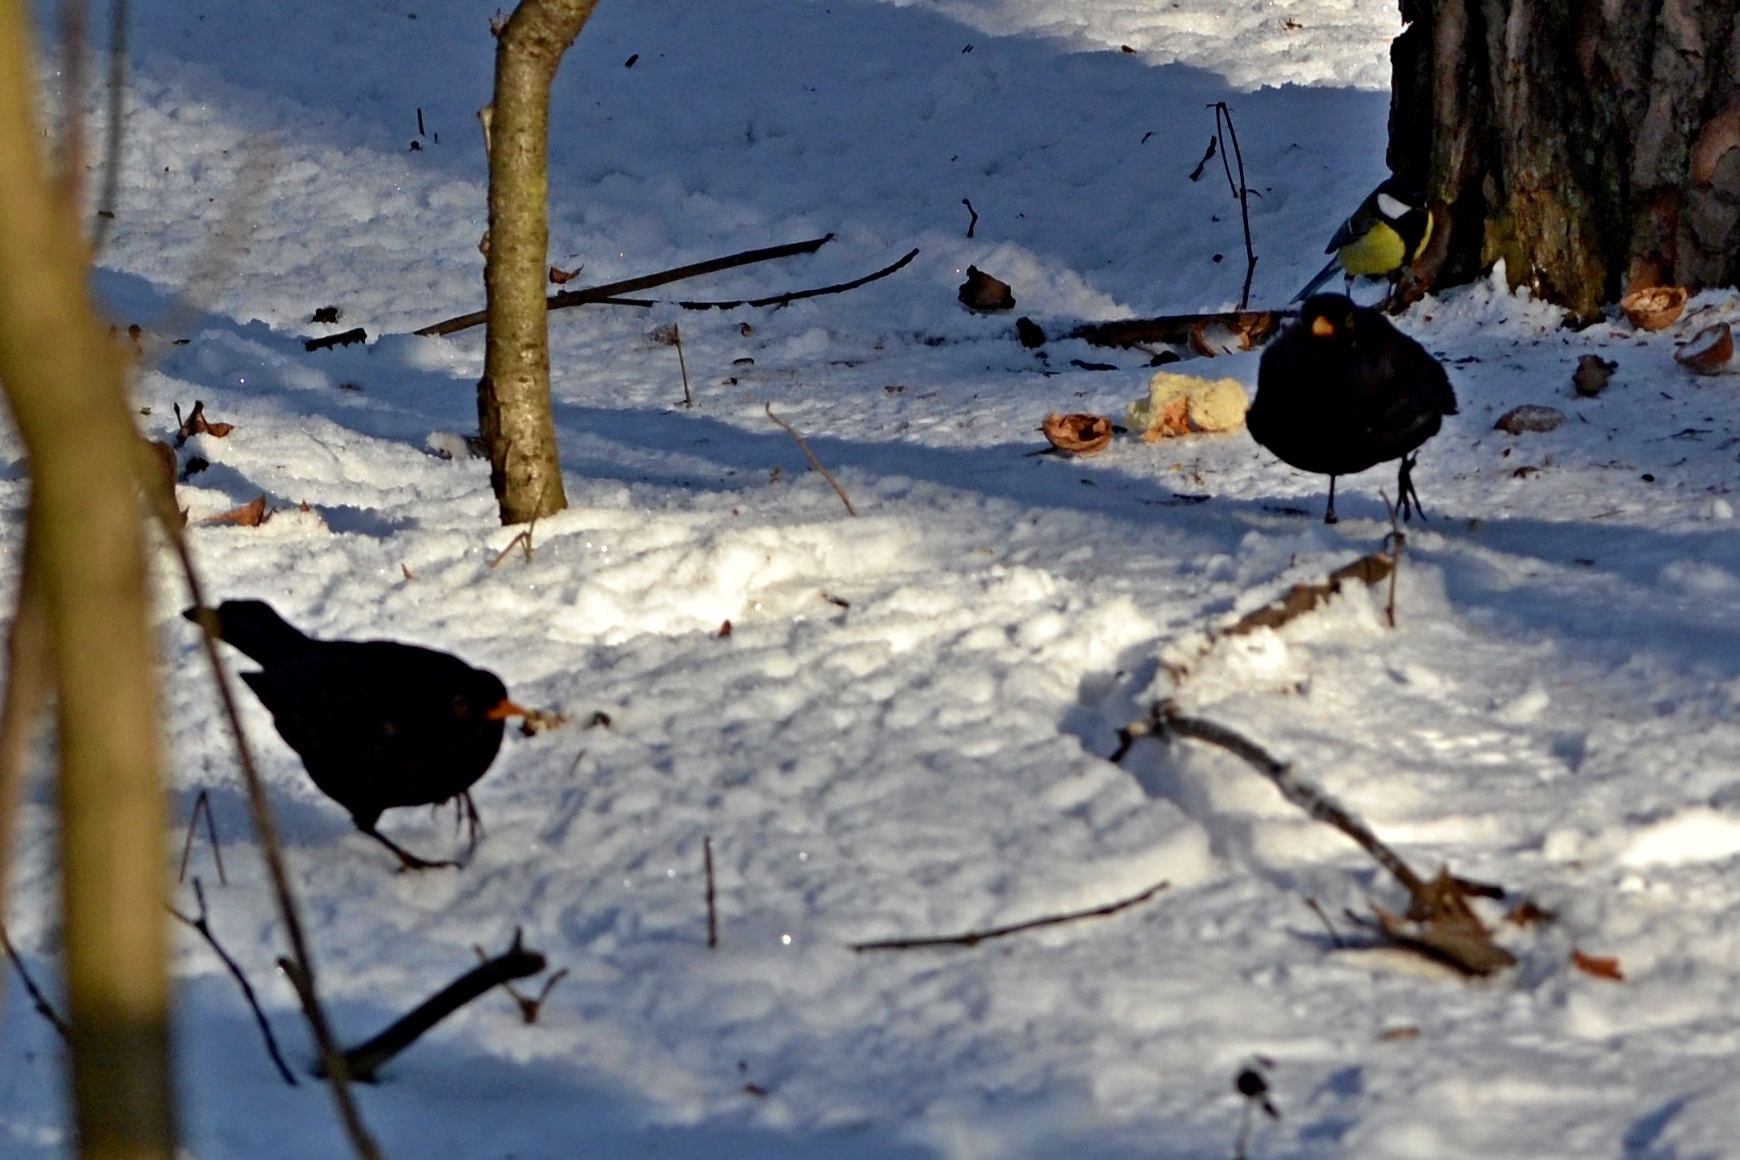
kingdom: Animalia
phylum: Chordata
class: Aves
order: Passeriformes
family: Turdidae
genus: Turdus
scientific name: Turdus merula
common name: Common blackbird
